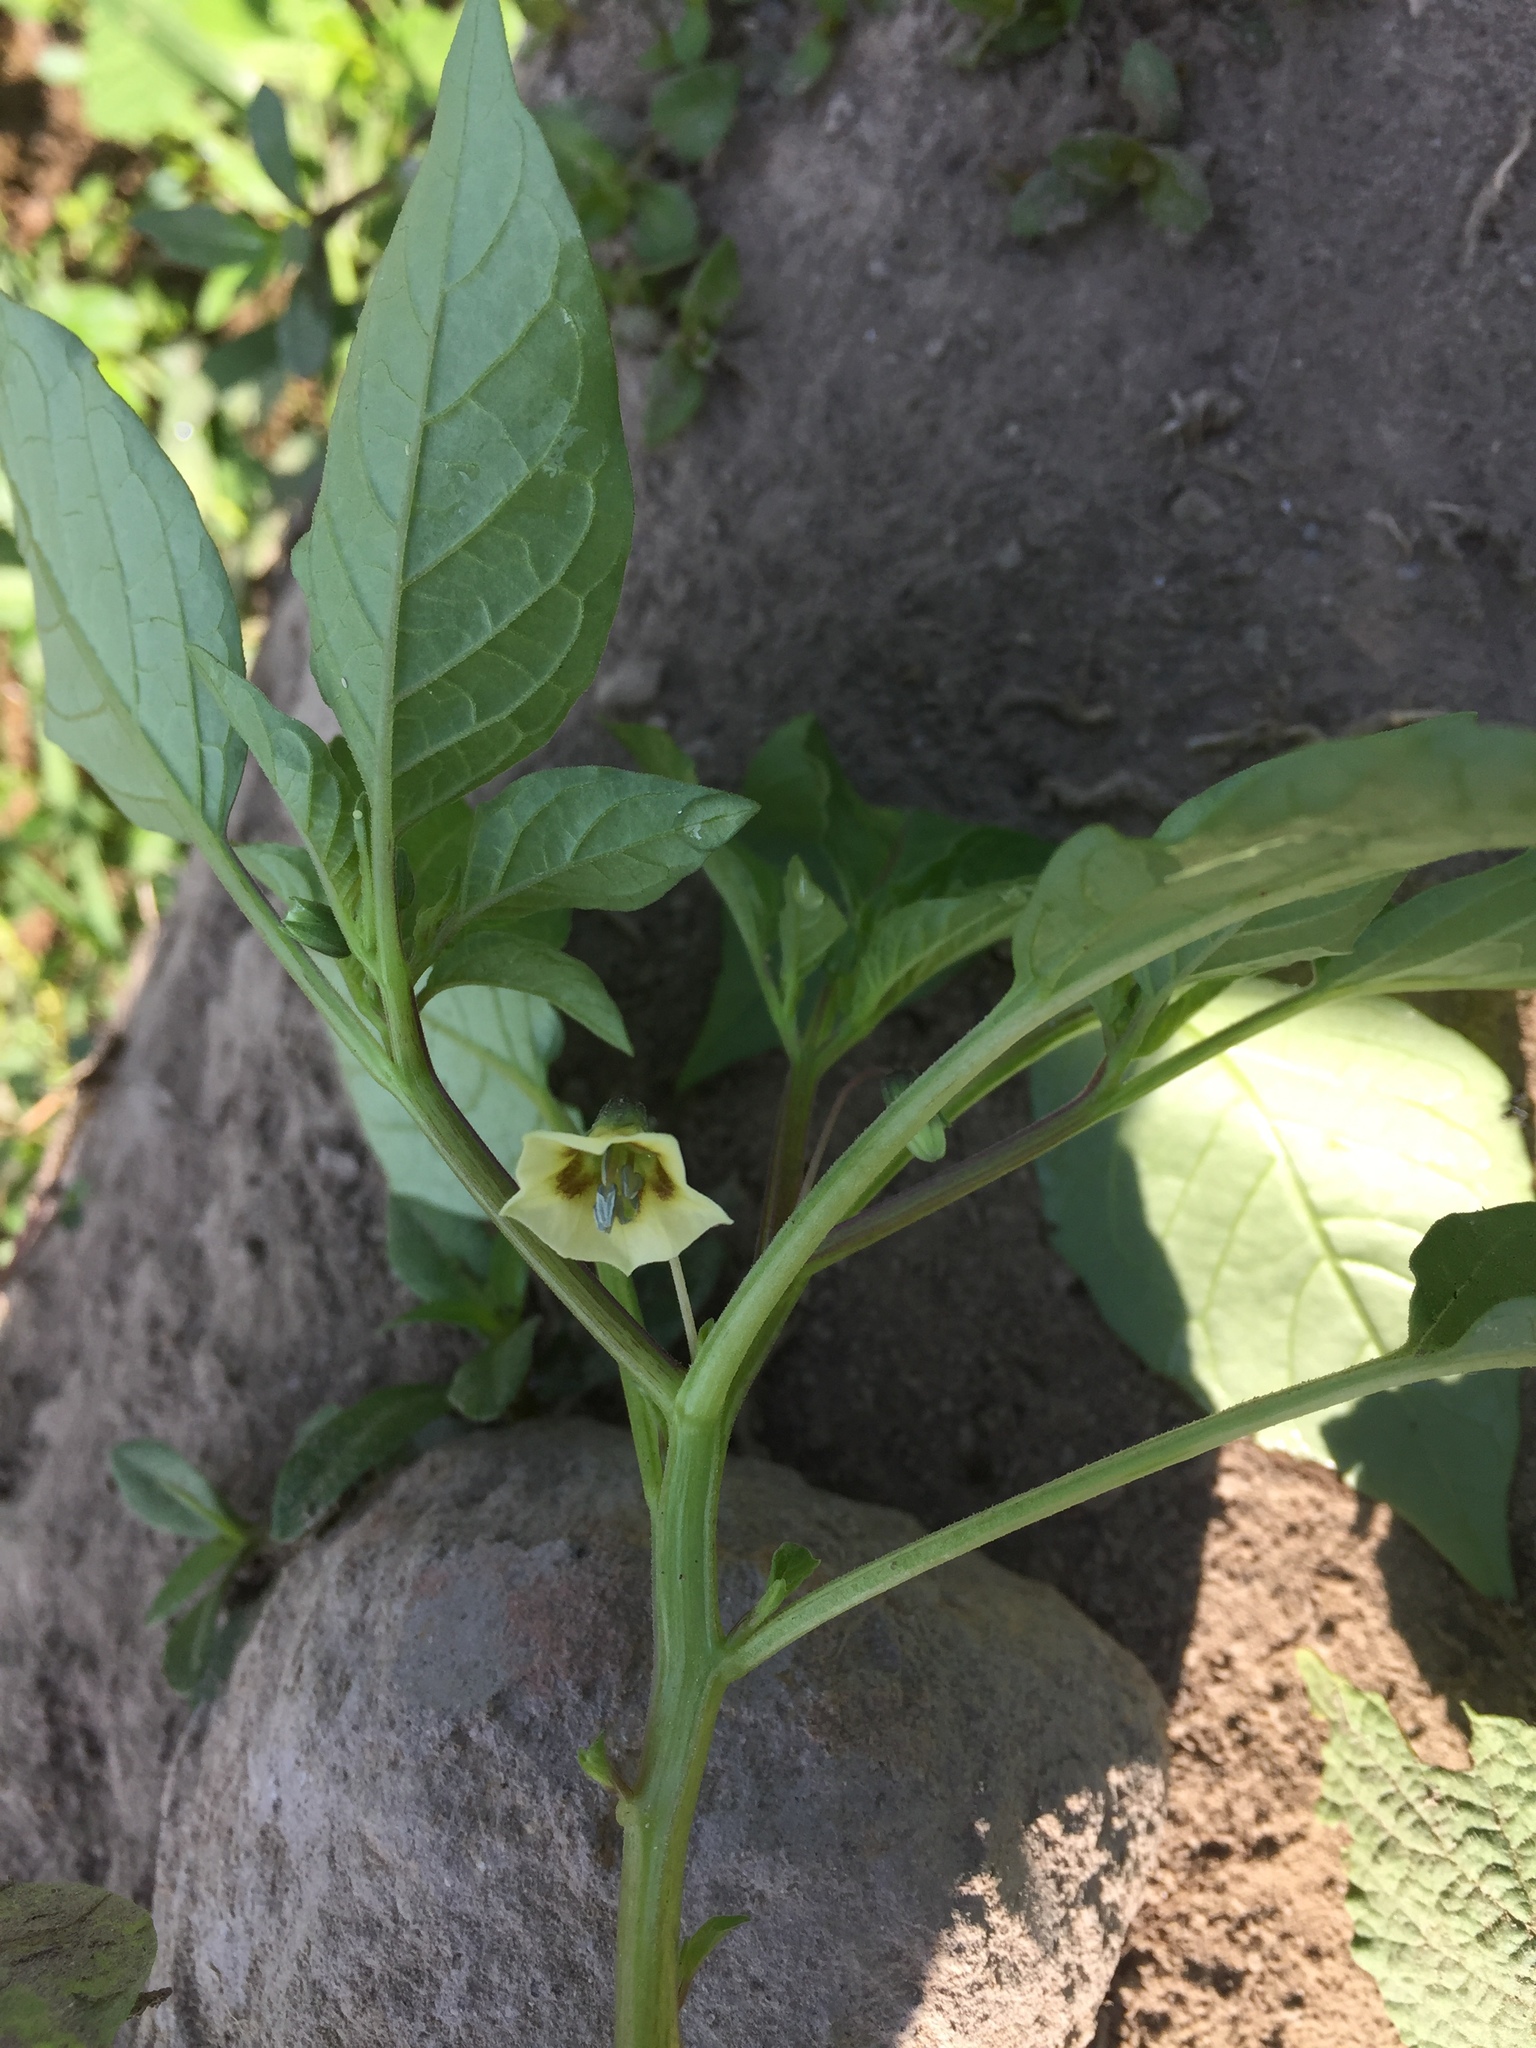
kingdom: Plantae
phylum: Tracheophyta
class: Magnoliopsida
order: Solanales
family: Solanaceae
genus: Physalis
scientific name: Physalis angulata
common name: Angular winter-cherry
